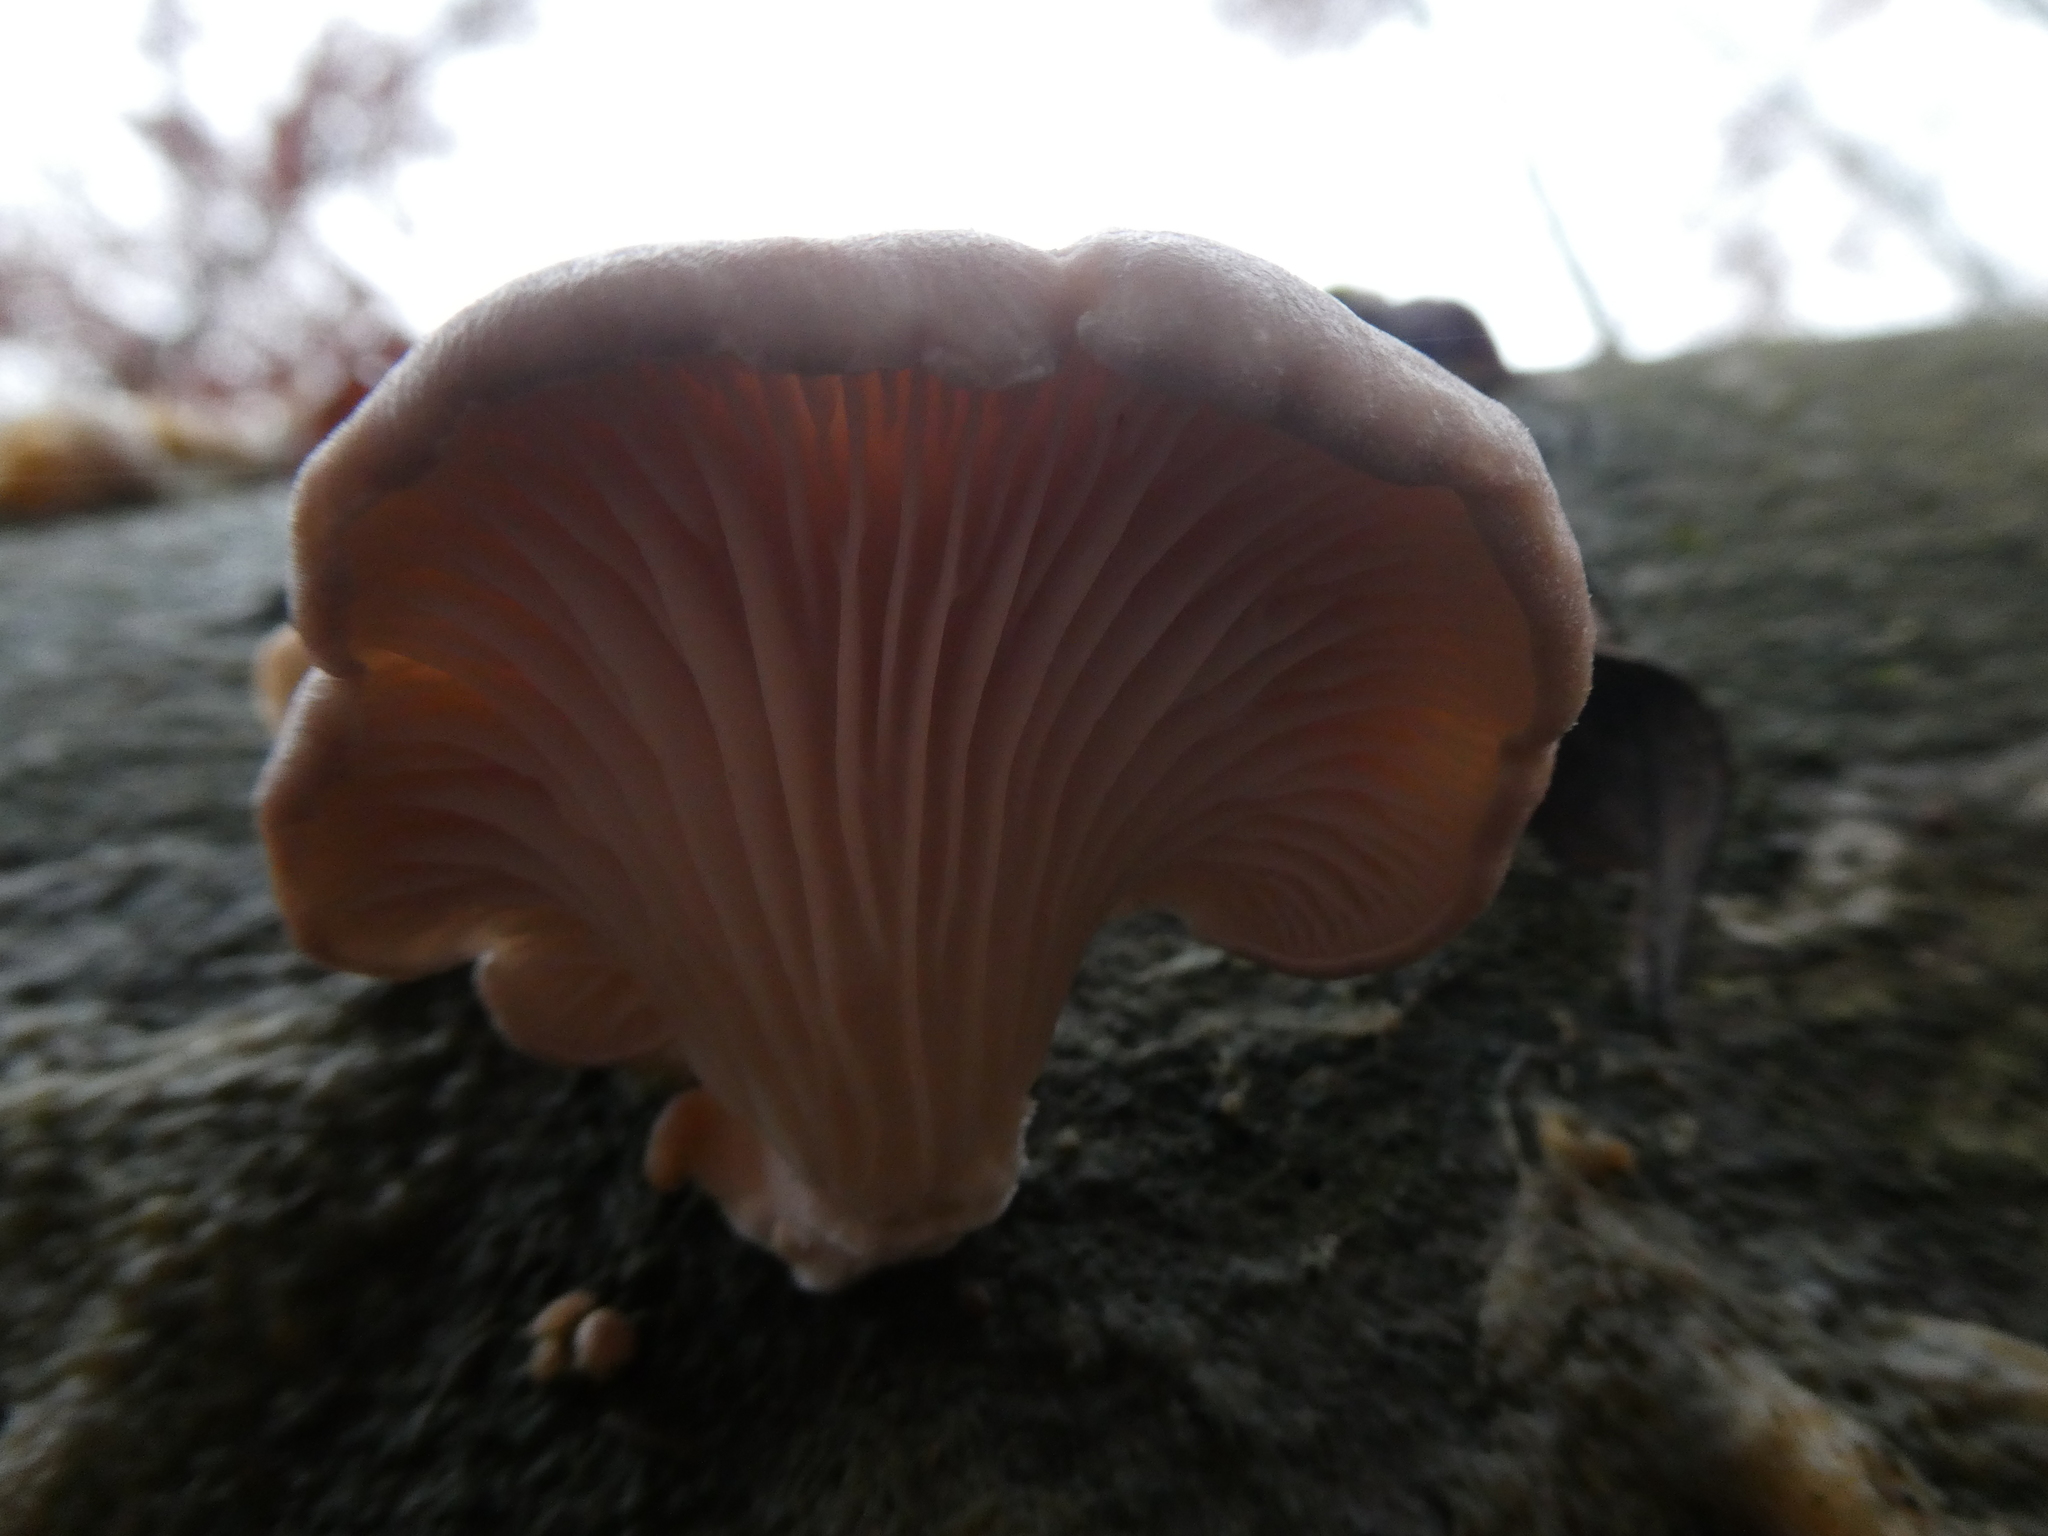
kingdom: Fungi
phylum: Basidiomycota
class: Agaricomycetes
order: Agaricales
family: Pleurotaceae
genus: Pleurotus
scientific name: Pleurotus ostreatus
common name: Oyster mushroom
